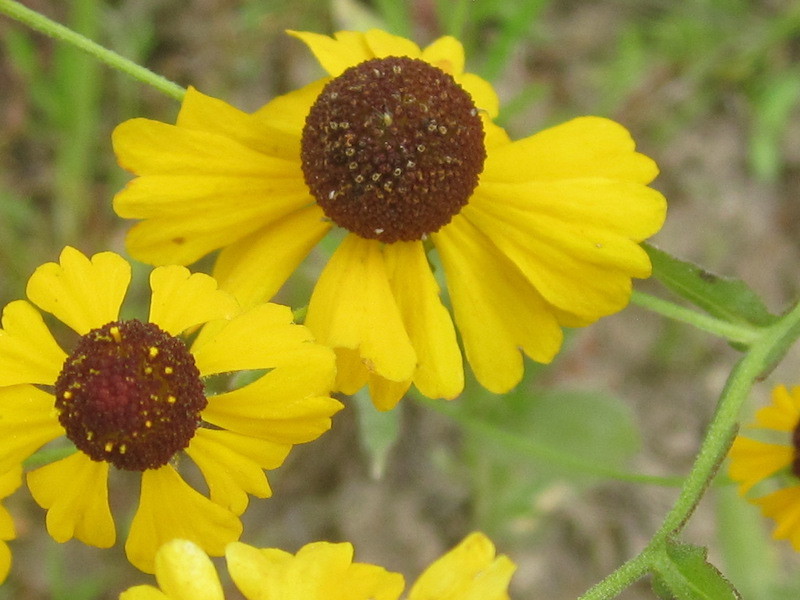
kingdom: Plantae
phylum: Tracheophyta
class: Magnoliopsida
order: Asterales
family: Asteraceae
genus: Helenium
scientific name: Helenium flexuosum
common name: Naked-flowered sneezeweed
